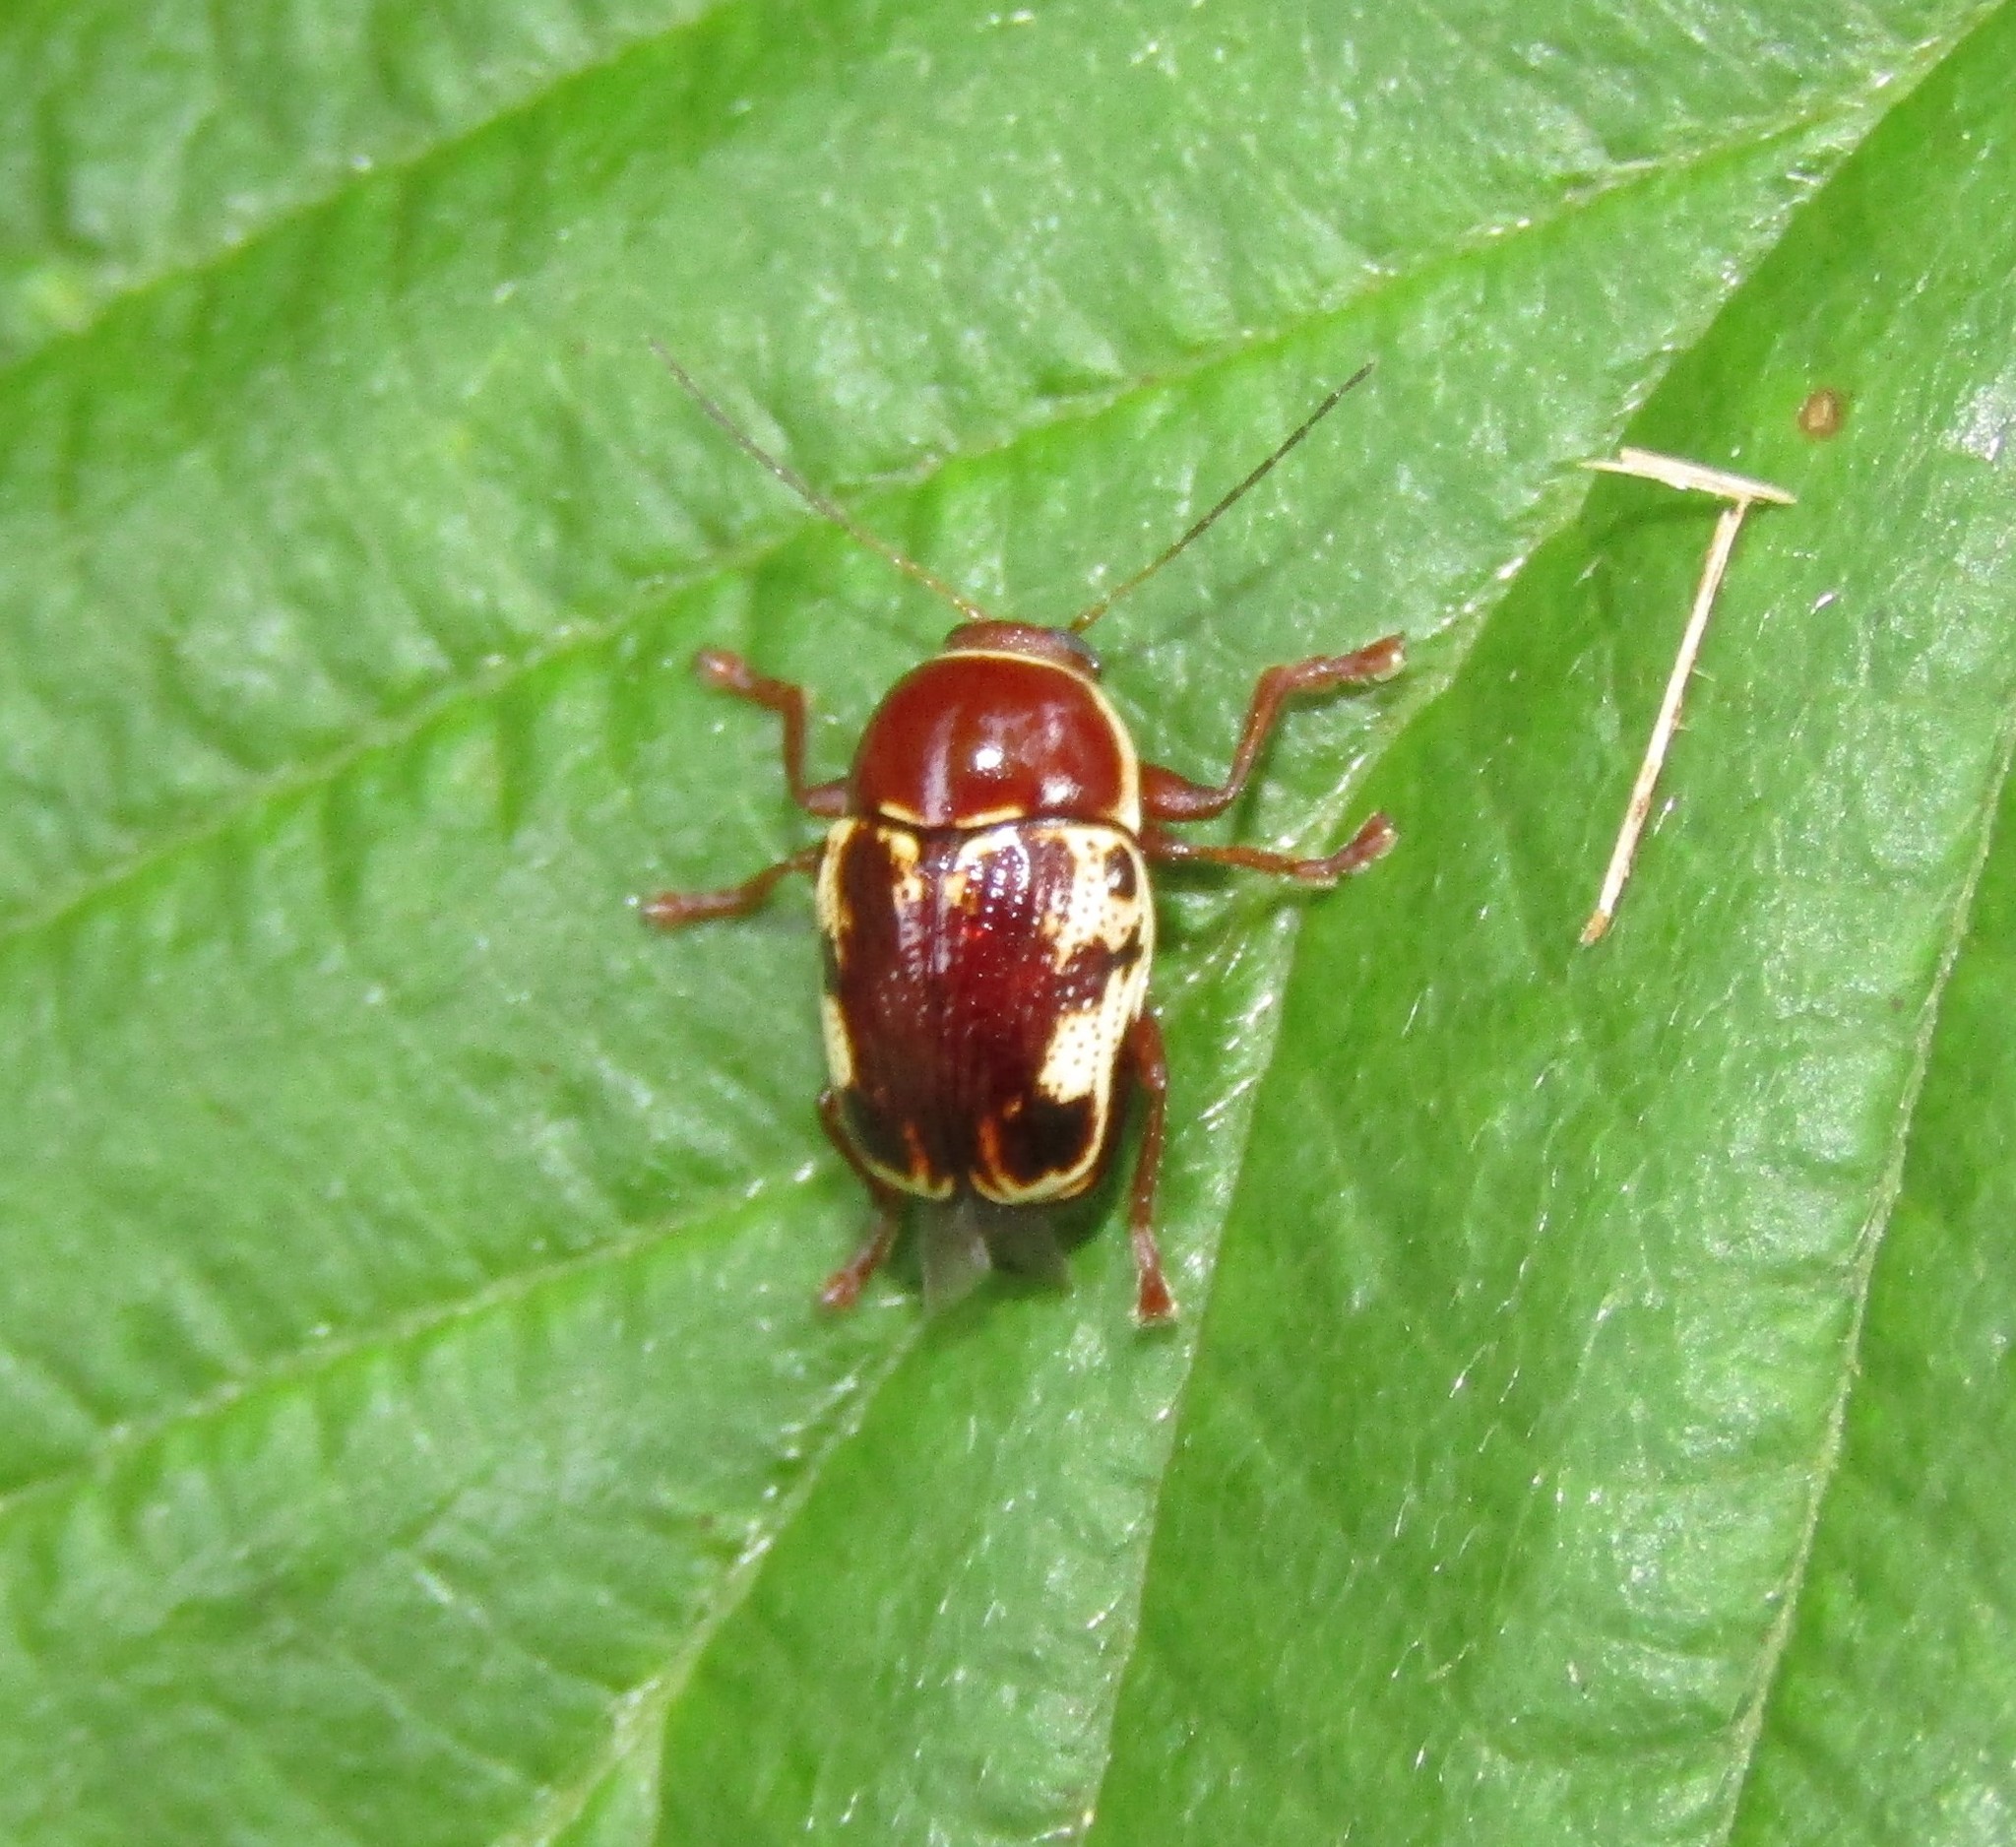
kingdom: Animalia
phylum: Arthropoda
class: Insecta
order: Coleoptera
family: Chrysomelidae
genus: Cryptocephalus
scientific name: Cryptocephalus mutabilis
